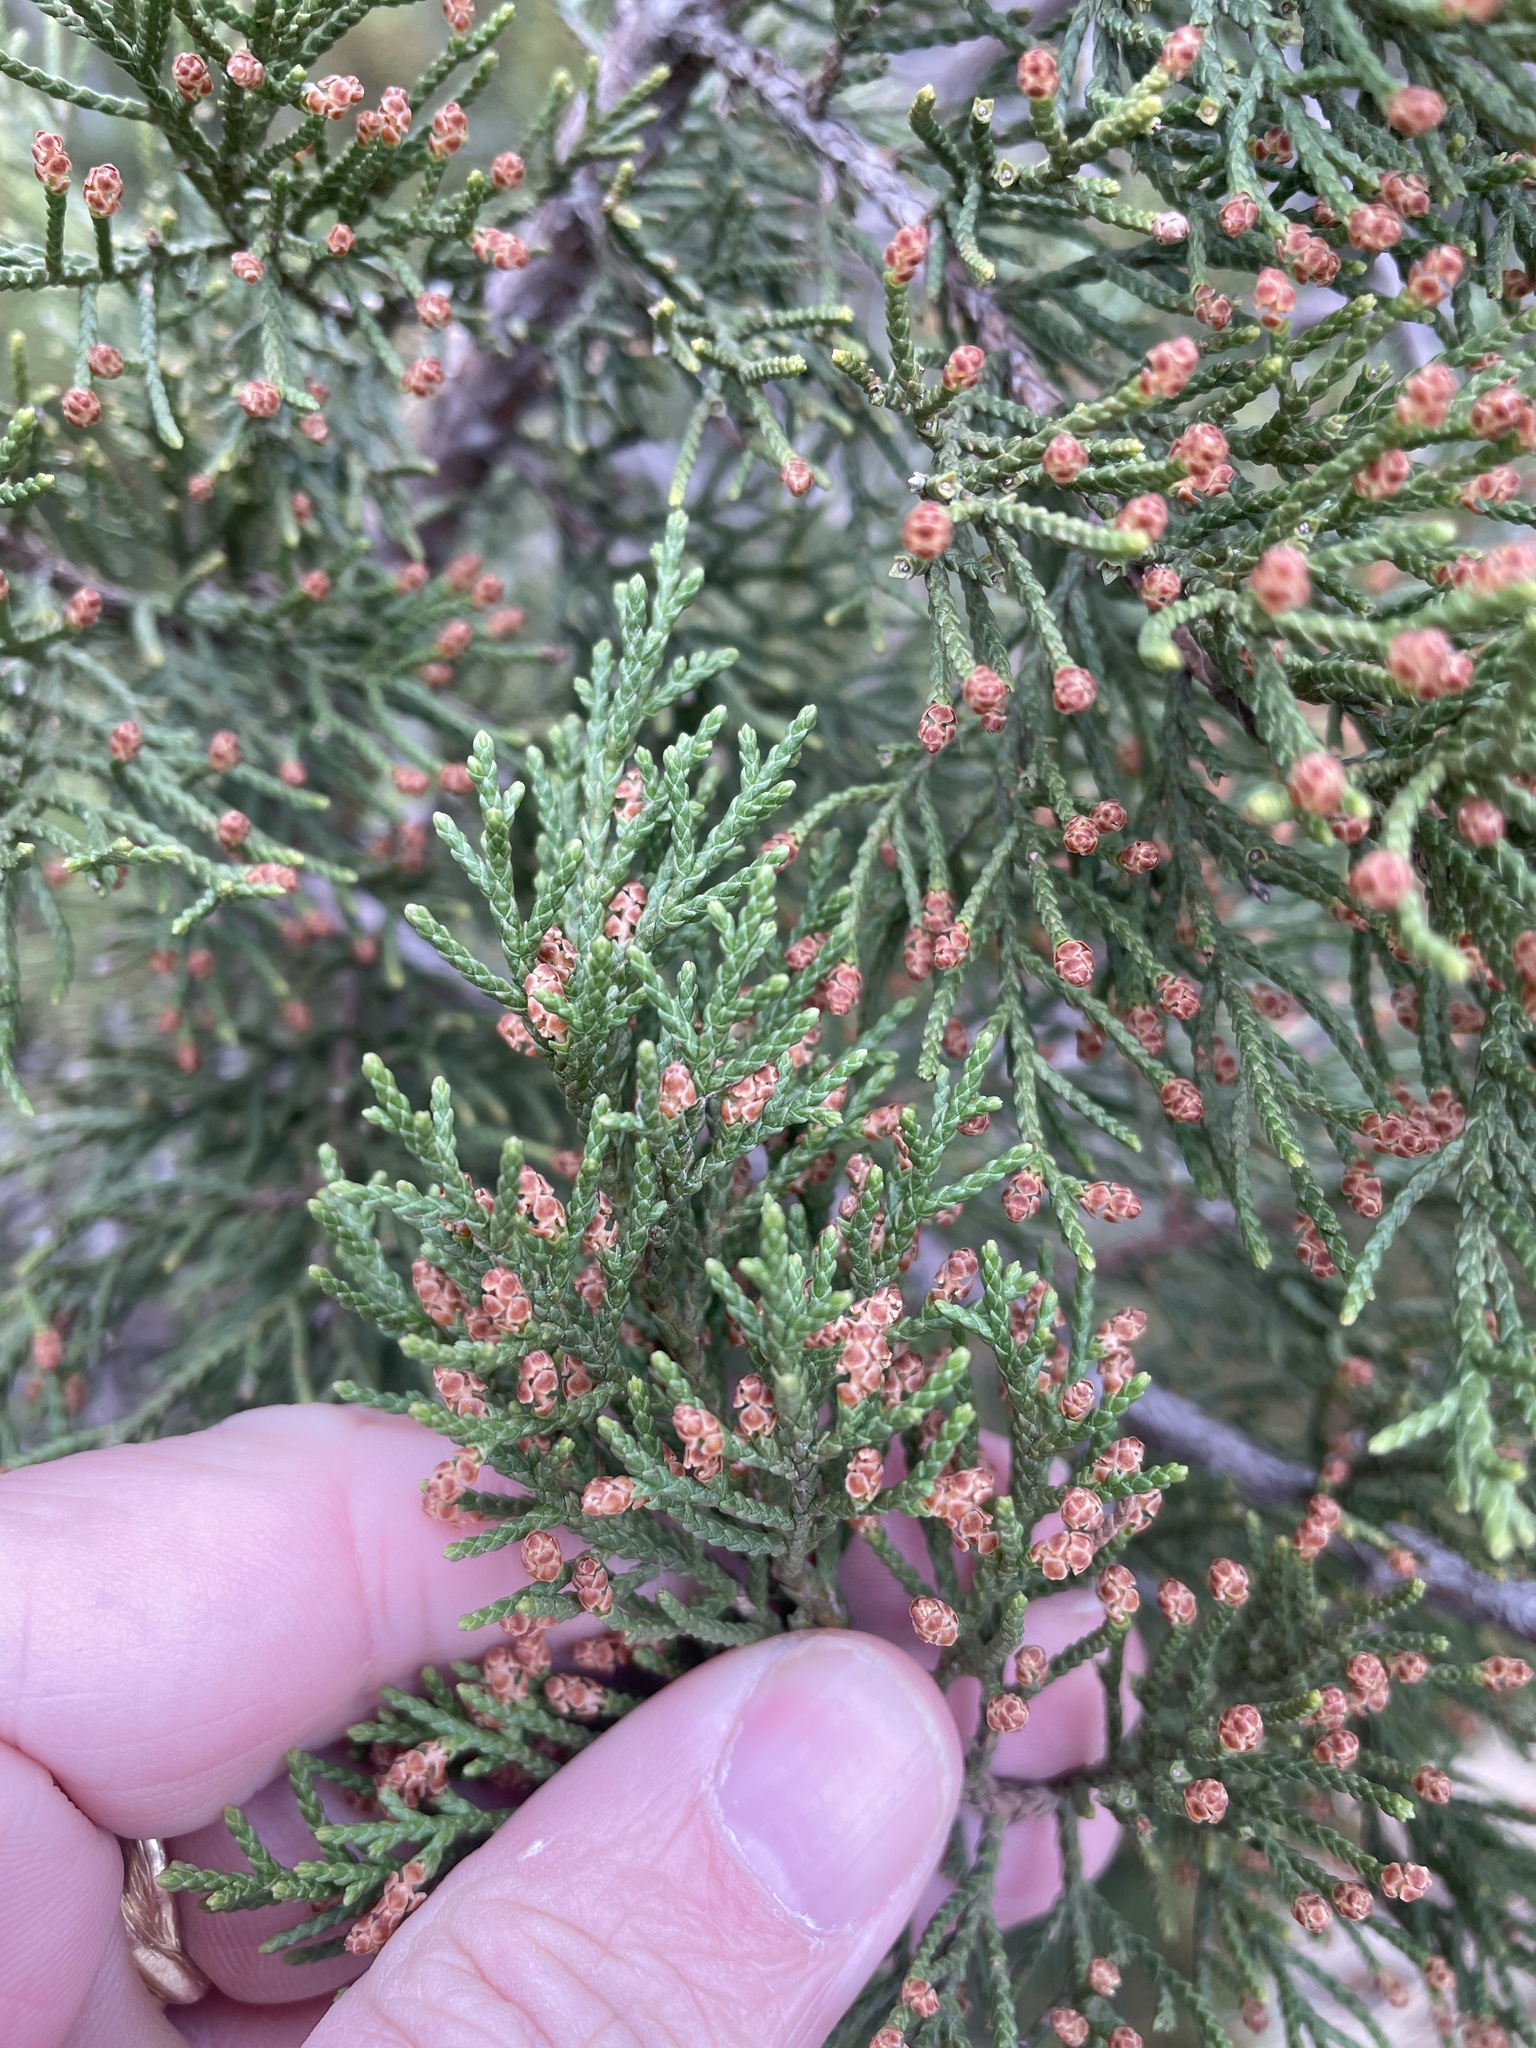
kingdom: Plantae
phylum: Tracheophyta
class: Pinopsida
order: Pinales
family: Cupressaceae
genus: Juniperus
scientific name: Juniperus virginiana
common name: Red juniper
